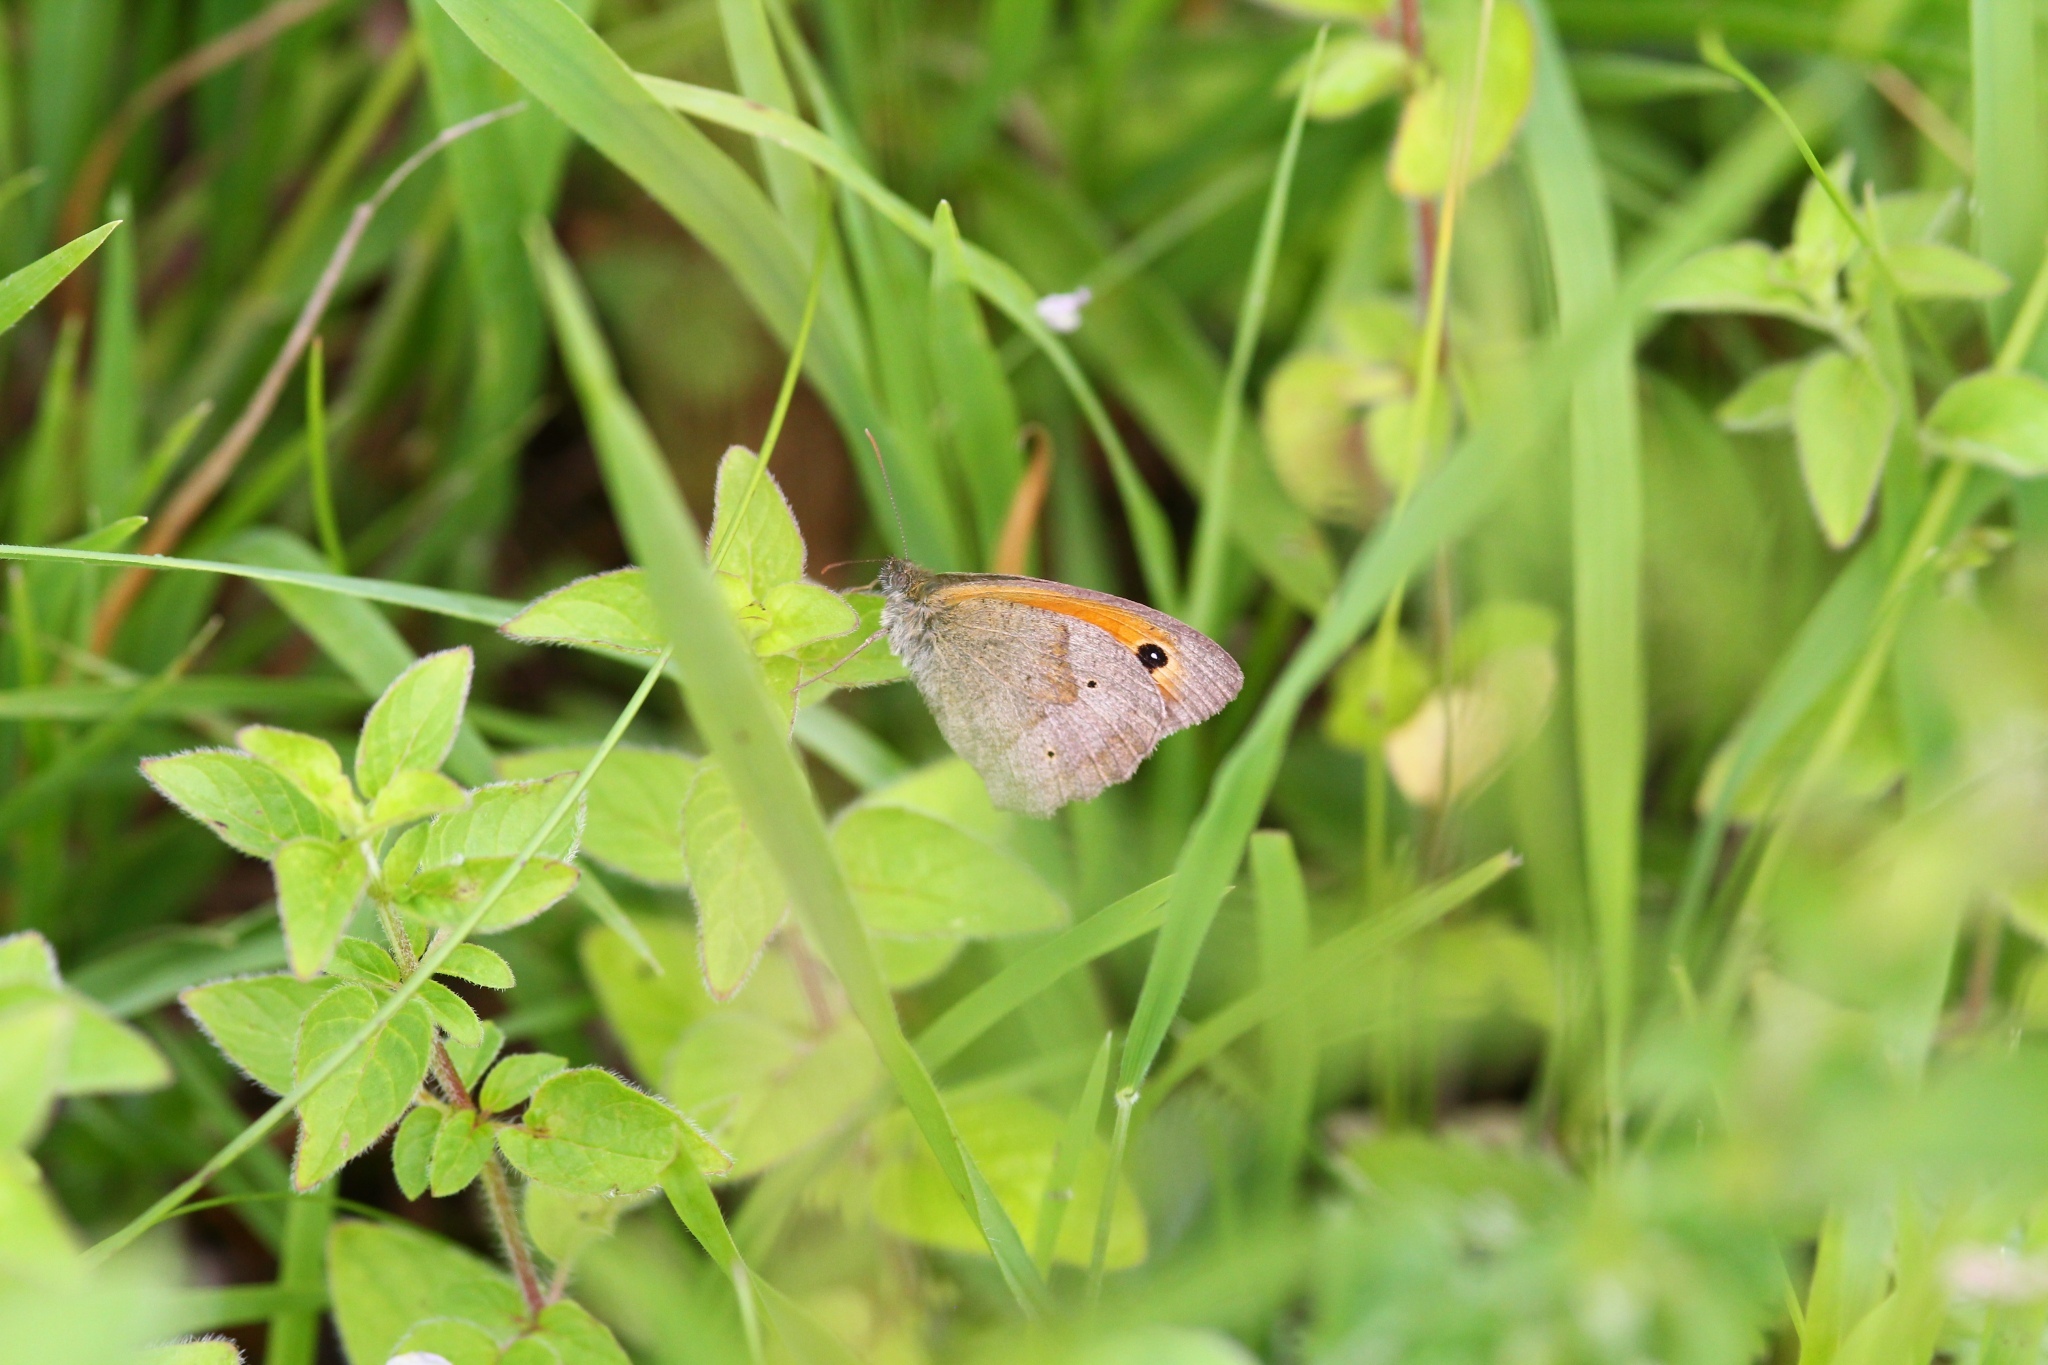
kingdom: Animalia
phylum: Arthropoda
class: Insecta
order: Lepidoptera
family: Nymphalidae
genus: Maniola
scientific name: Maniola jurtina
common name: Meadow brown
